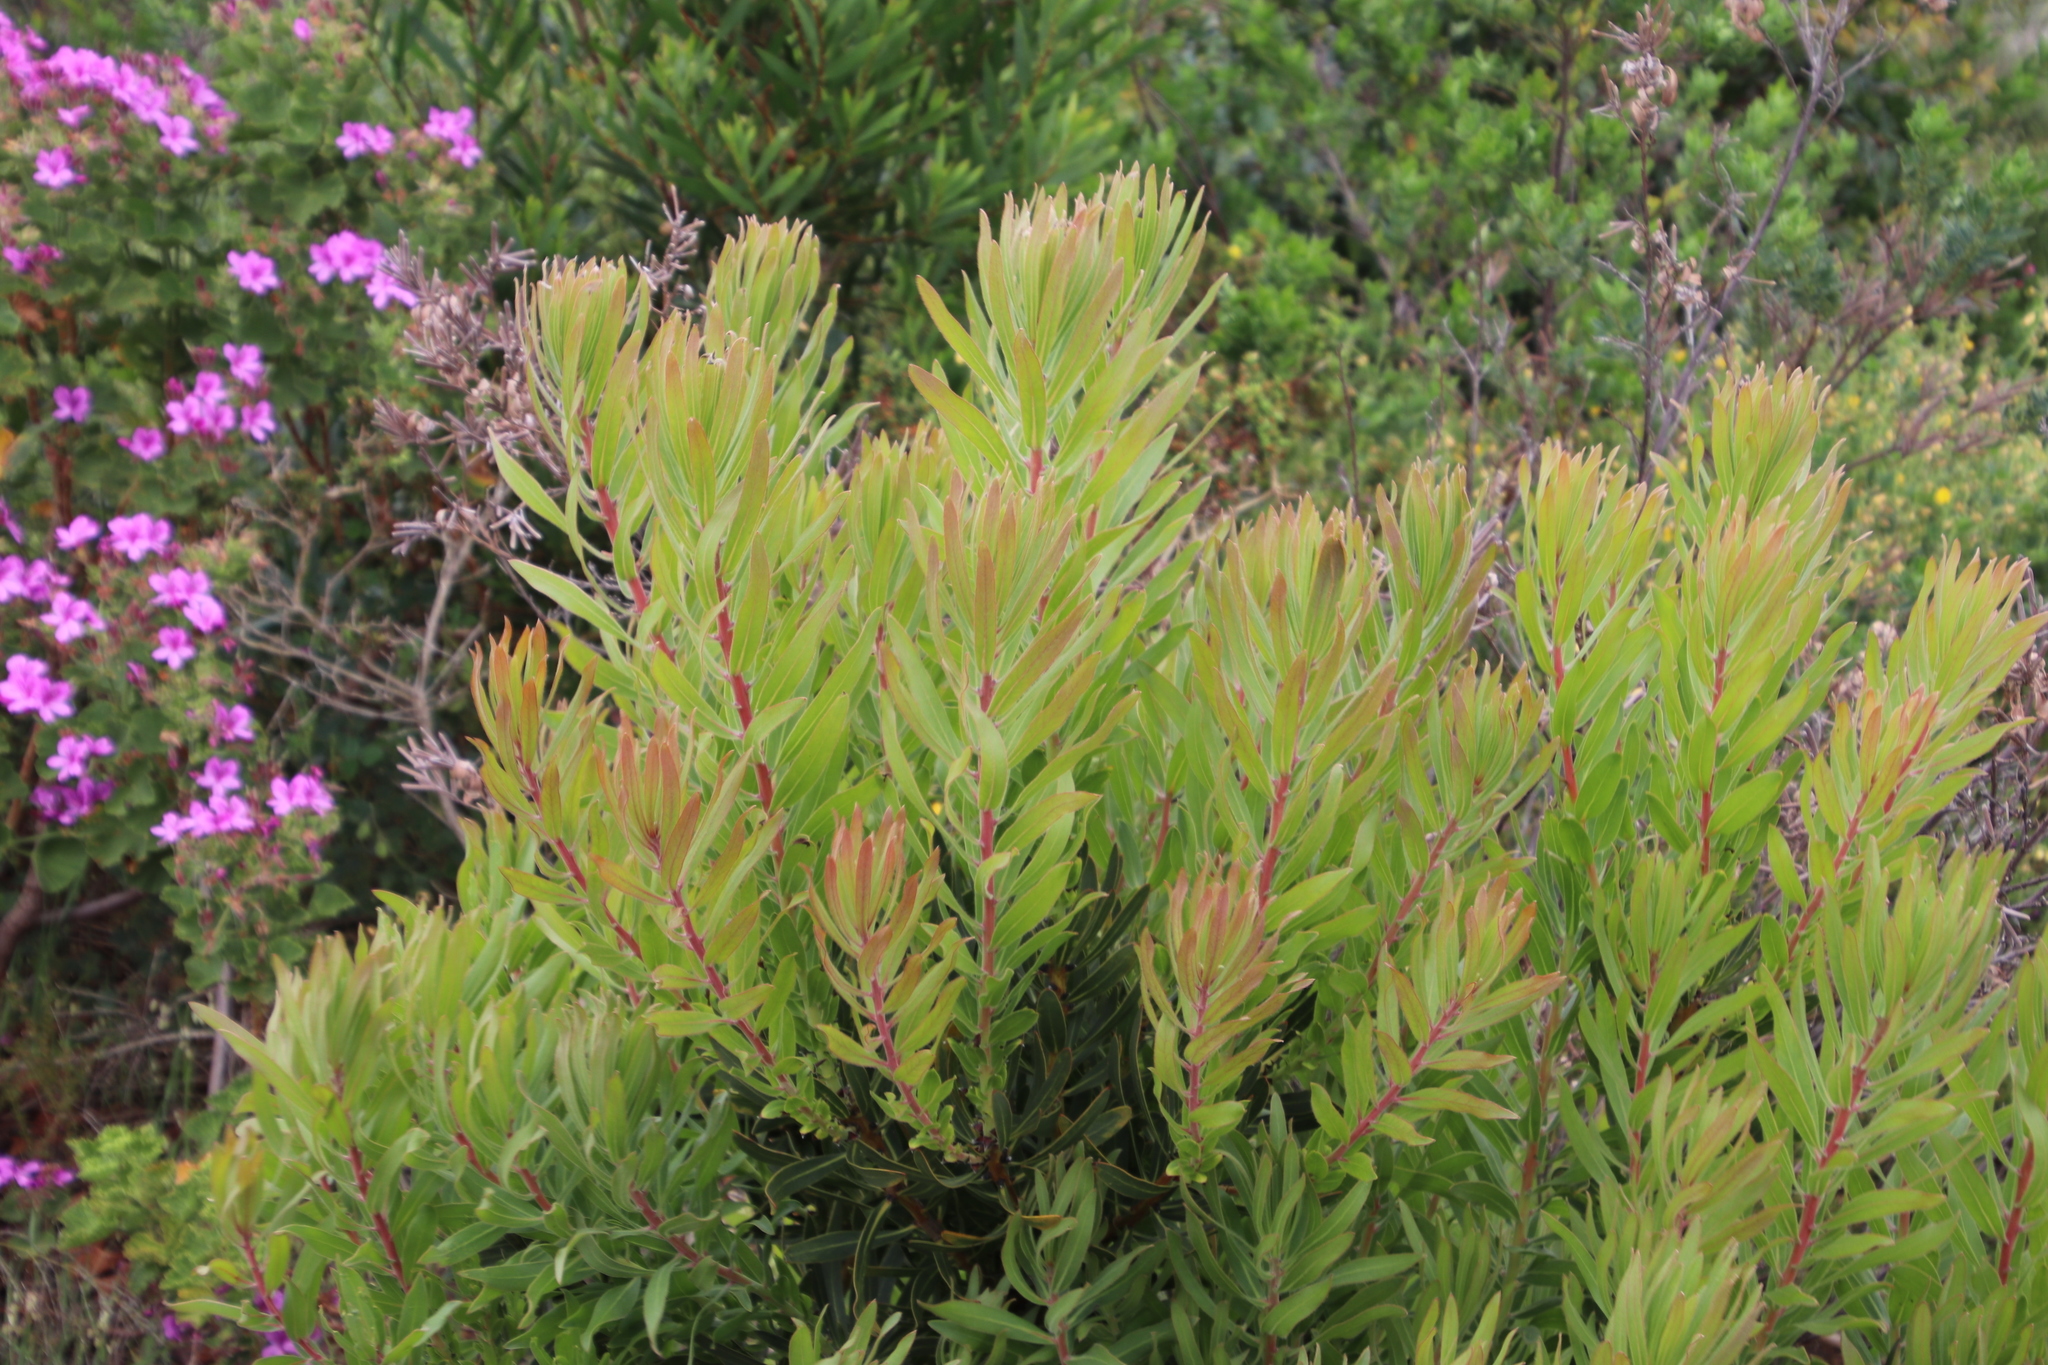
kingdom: Plantae
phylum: Tracheophyta
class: Magnoliopsida
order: Proteales
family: Proteaceae
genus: Protea
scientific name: Protea lepidocarpodendron
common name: Black-bearded protea
